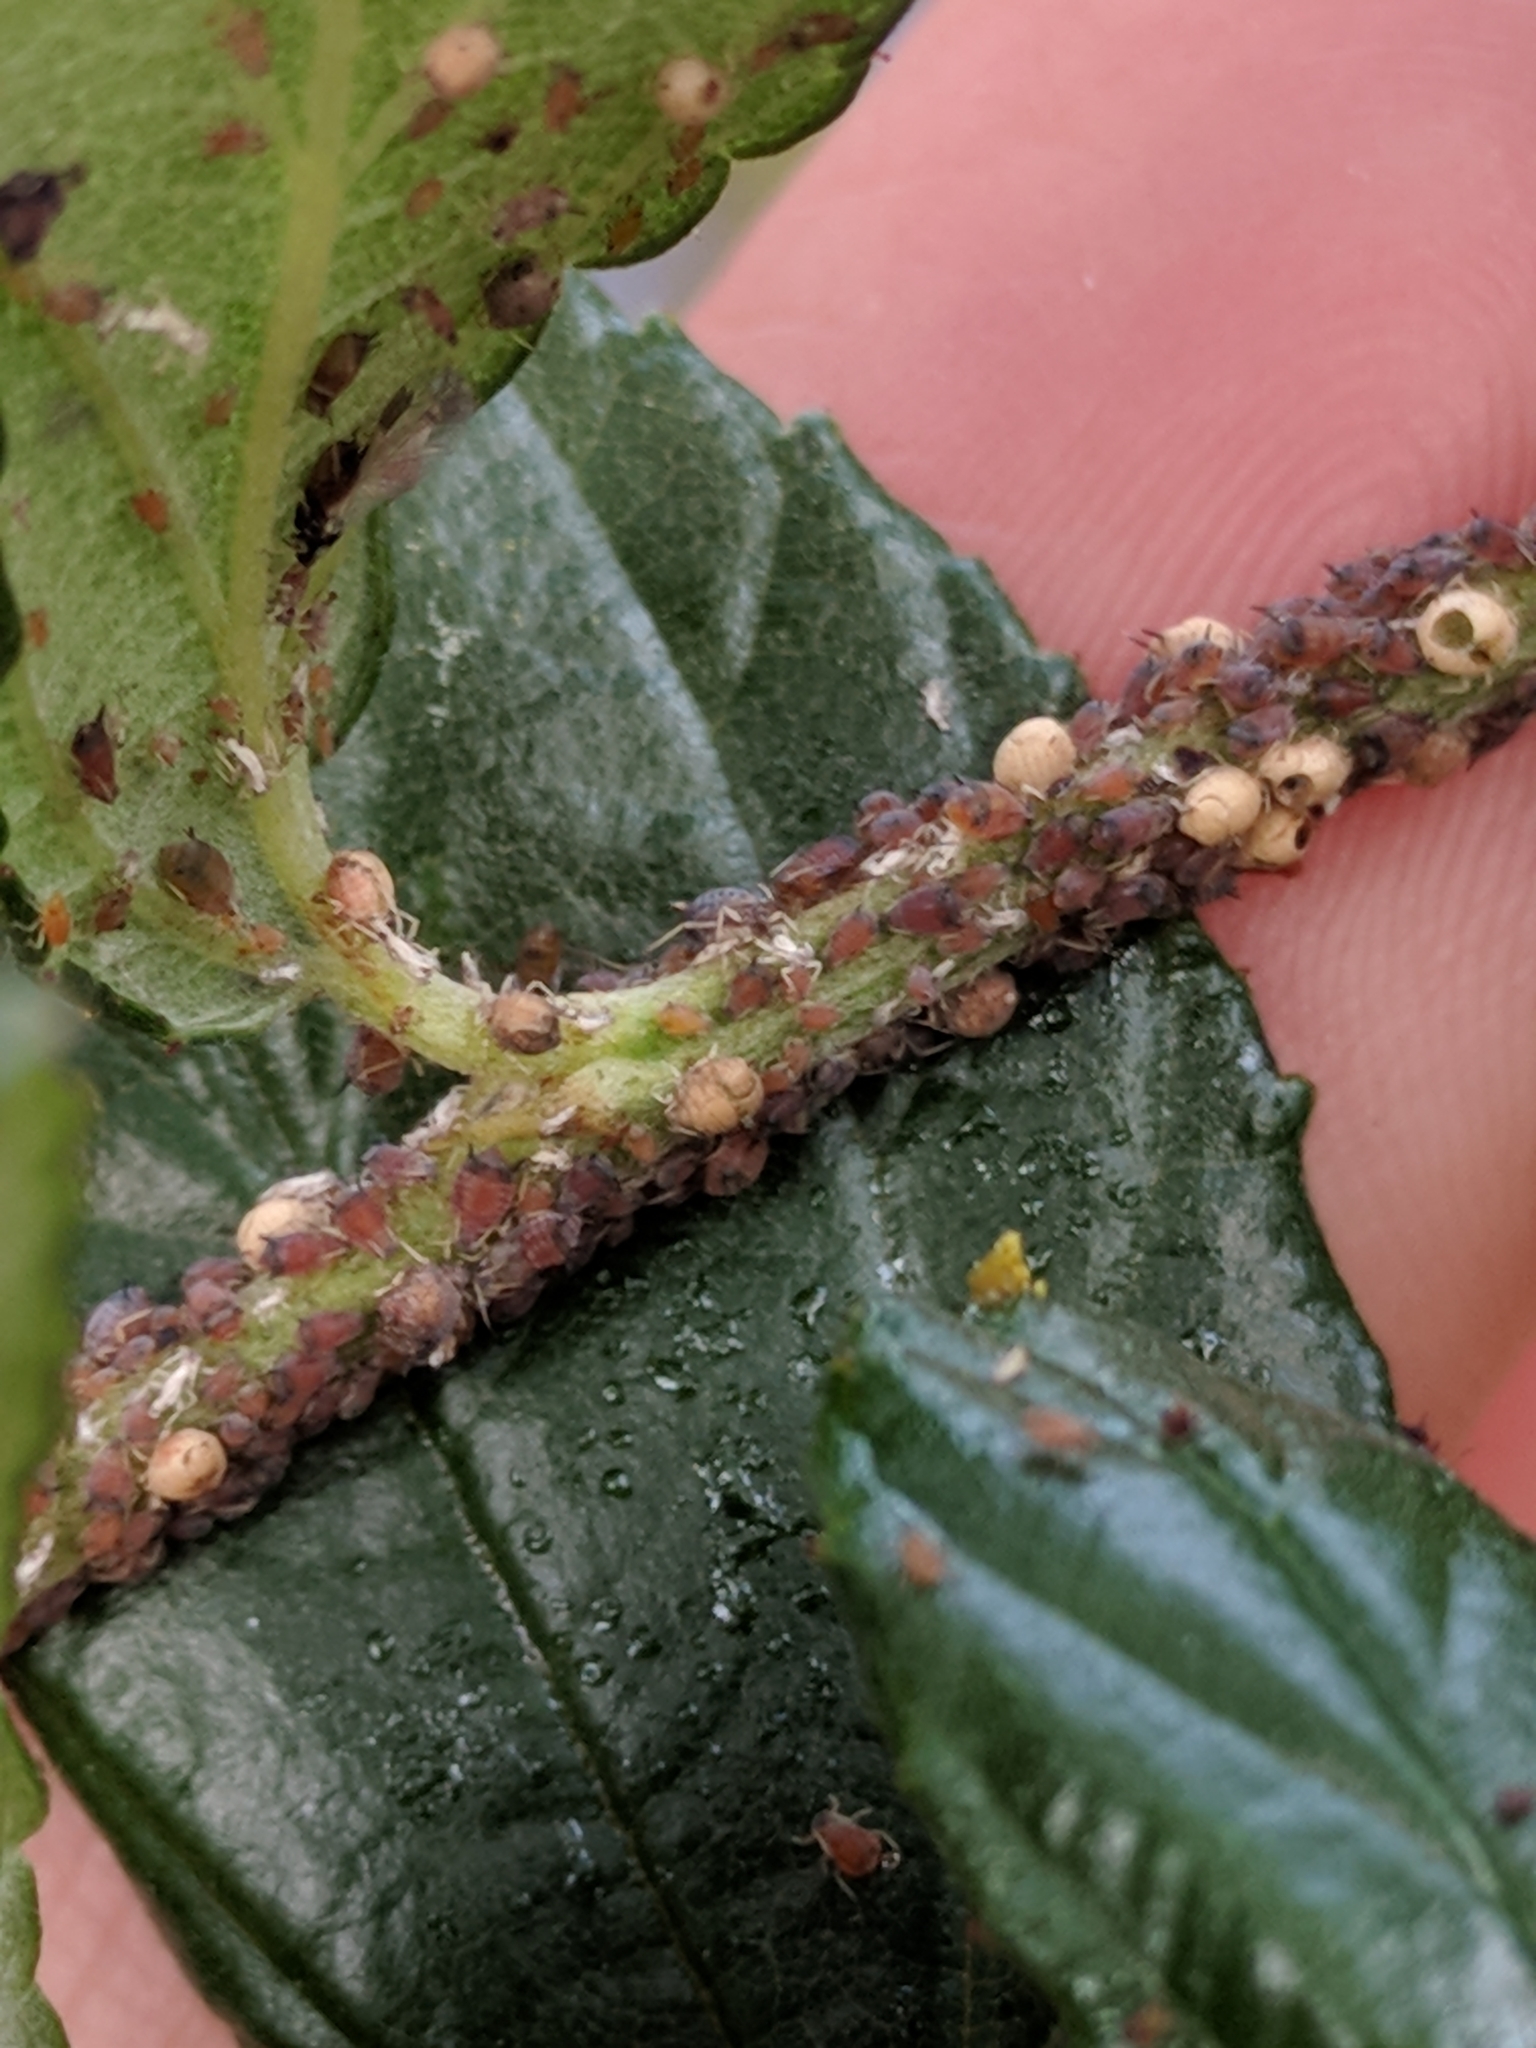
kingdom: Animalia
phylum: Arthropoda
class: Insecta
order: Hemiptera
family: Aphididae
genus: Aphis
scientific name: Aphis ceanothi
